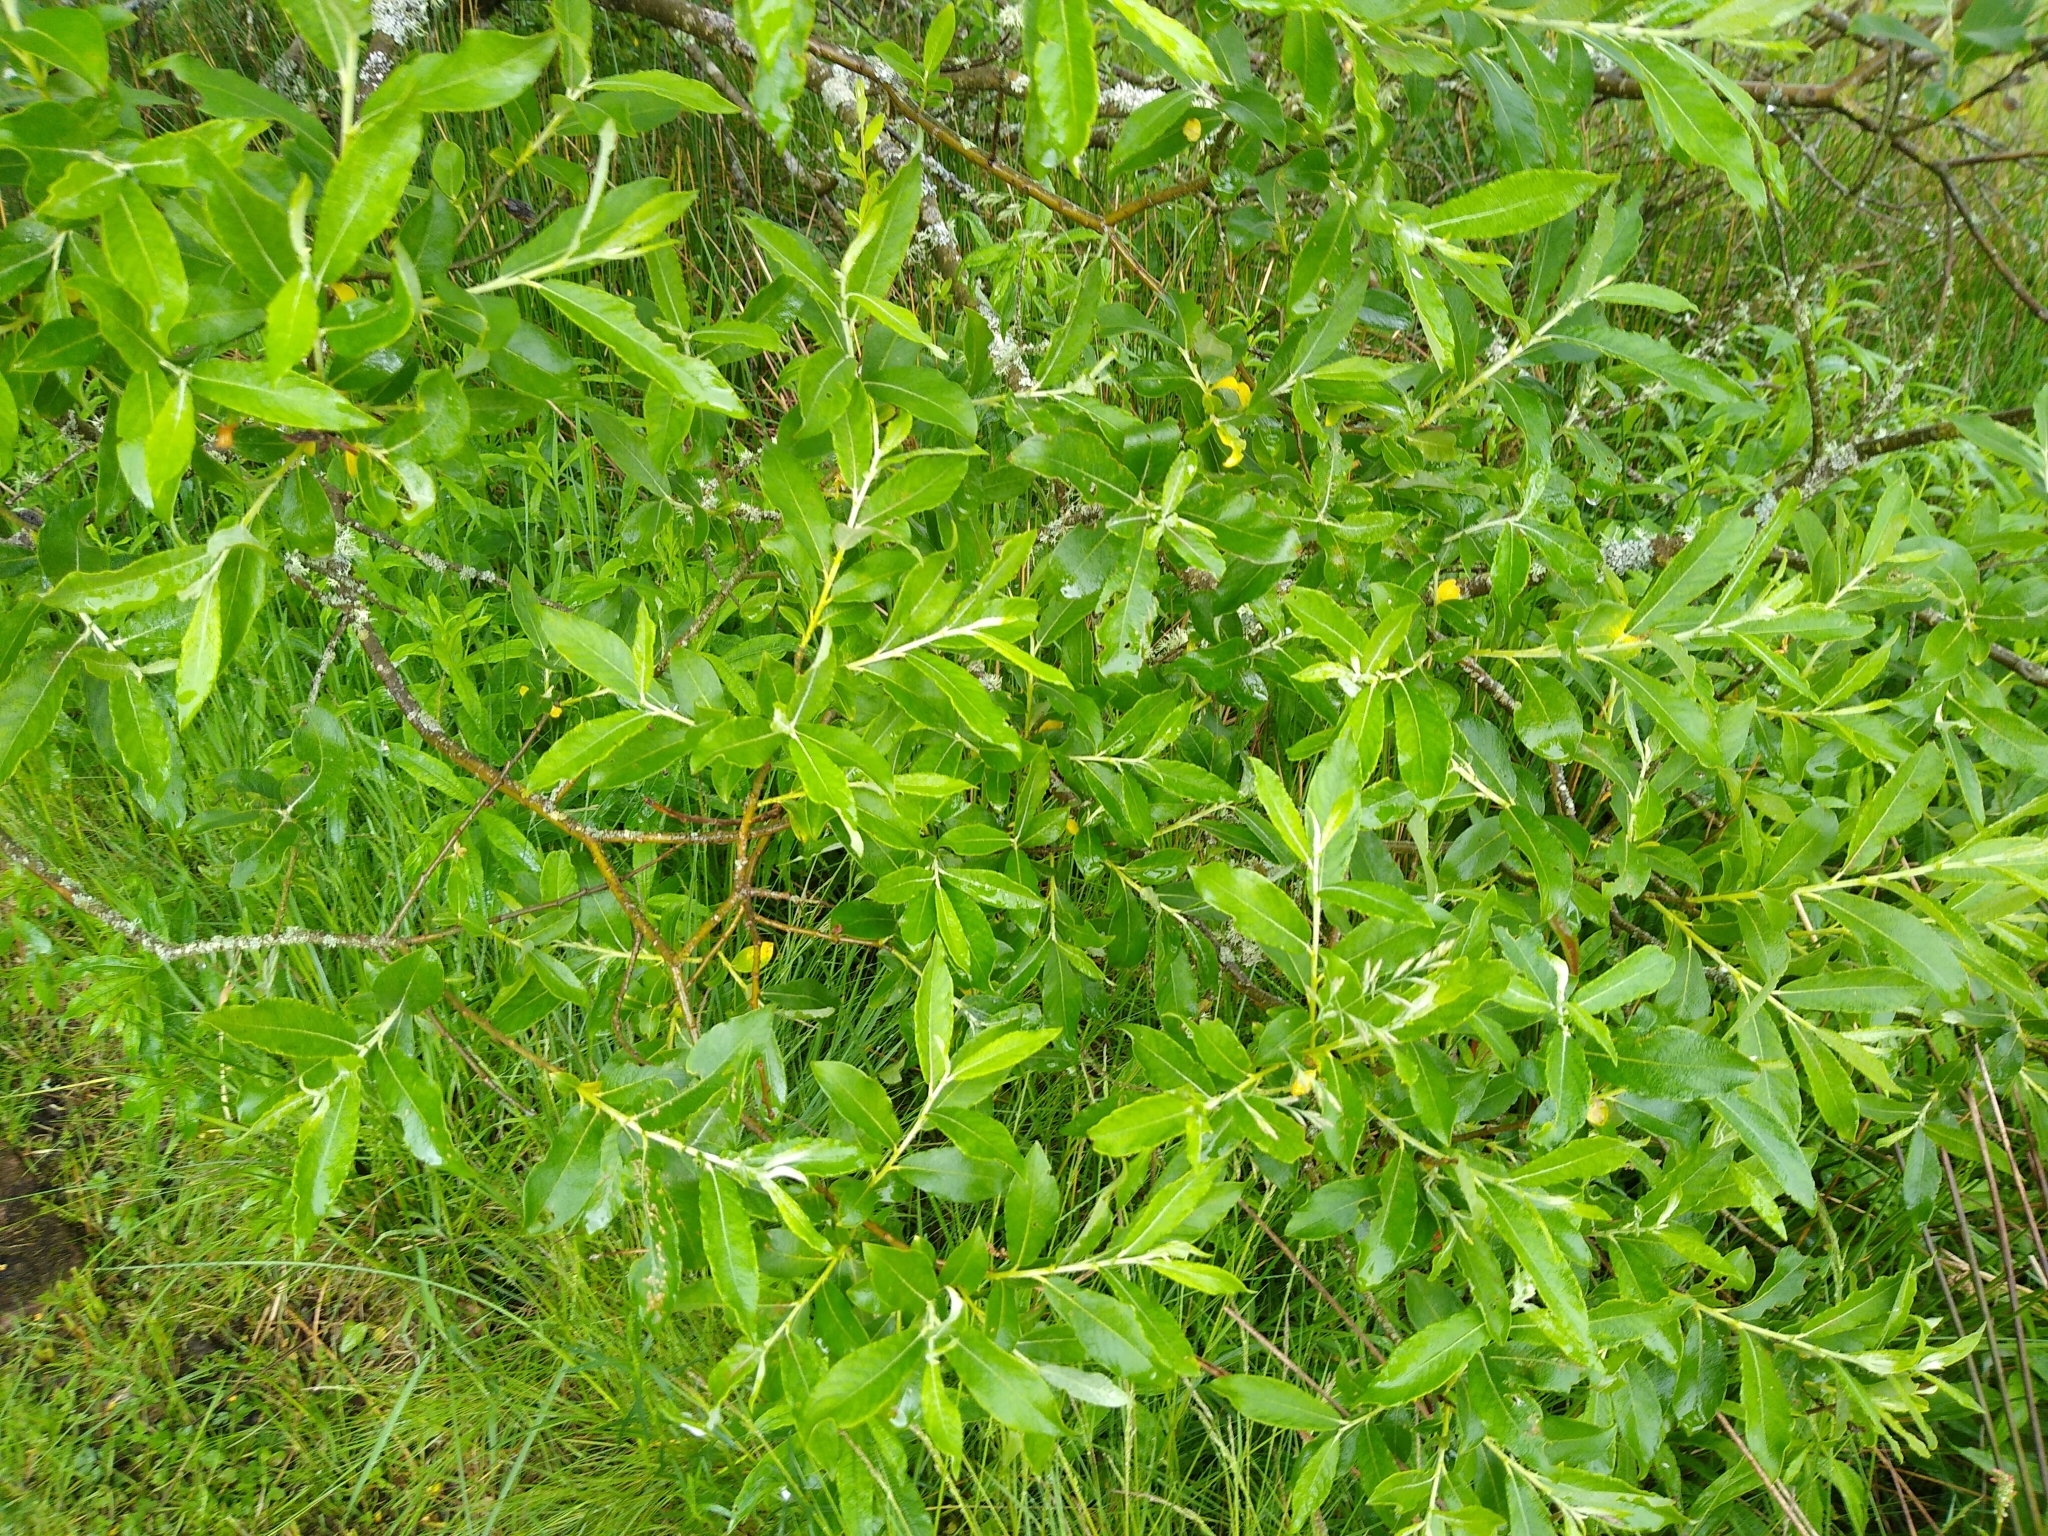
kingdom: Plantae
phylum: Tracheophyta
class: Magnoliopsida
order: Malpighiales
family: Salicaceae
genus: Salix
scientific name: Salix cinerea
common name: Common sallow
